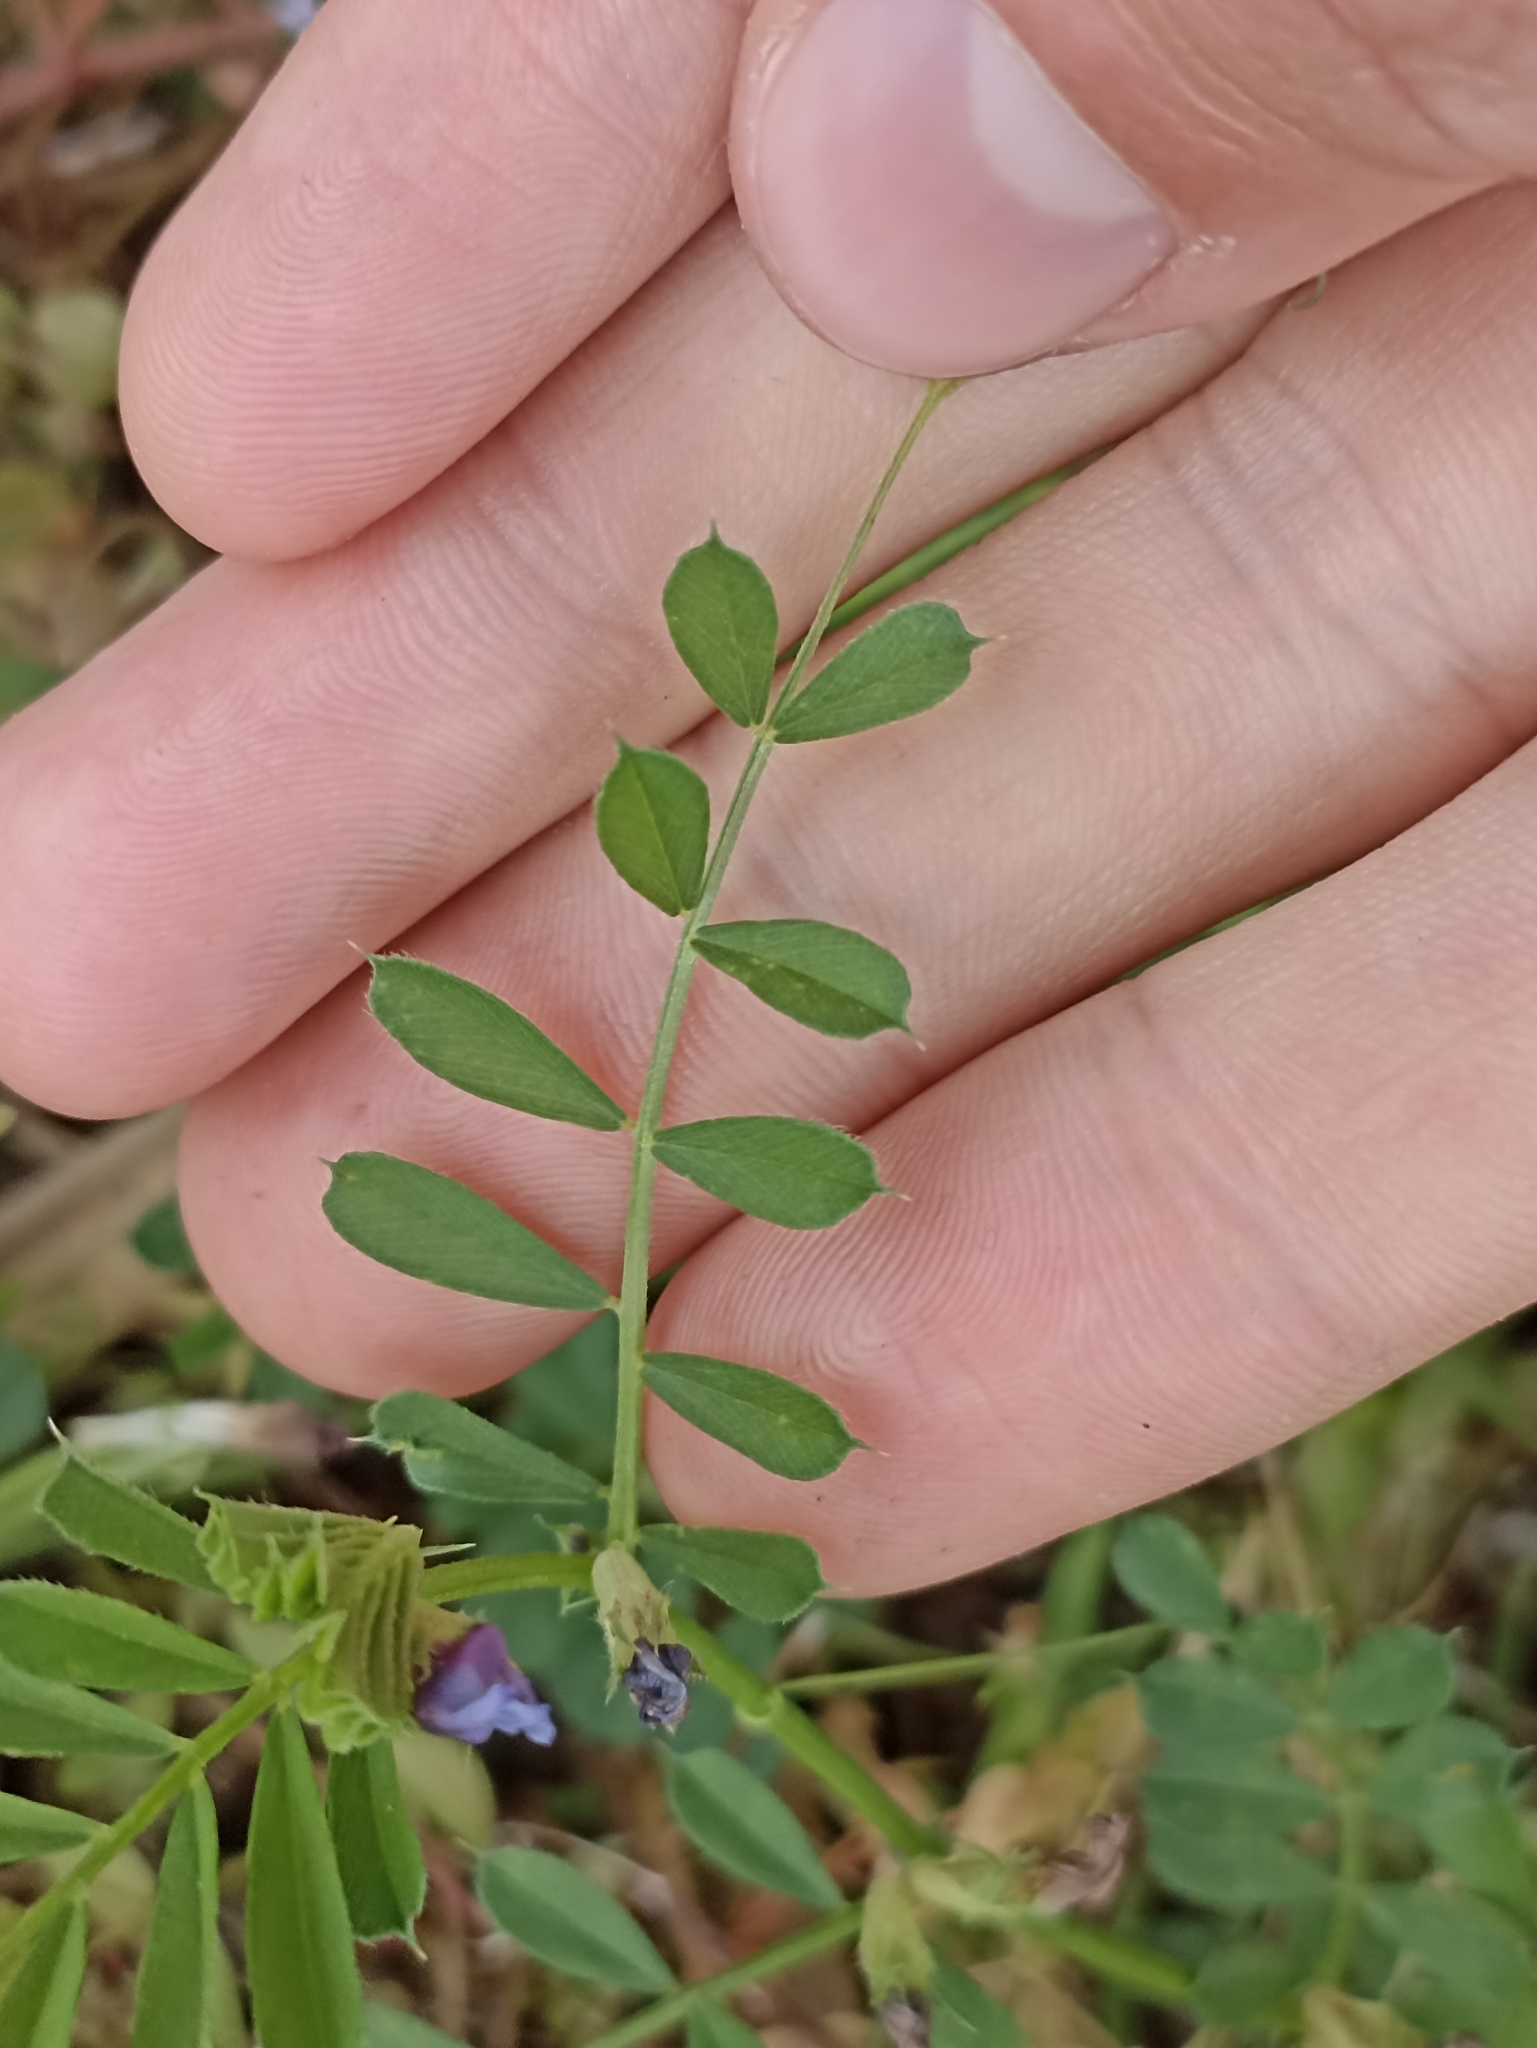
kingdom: Plantae
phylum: Tracheophyta
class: Magnoliopsida
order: Fabales
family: Fabaceae
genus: Vicia
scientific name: Vicia sativa
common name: Garden vetch
